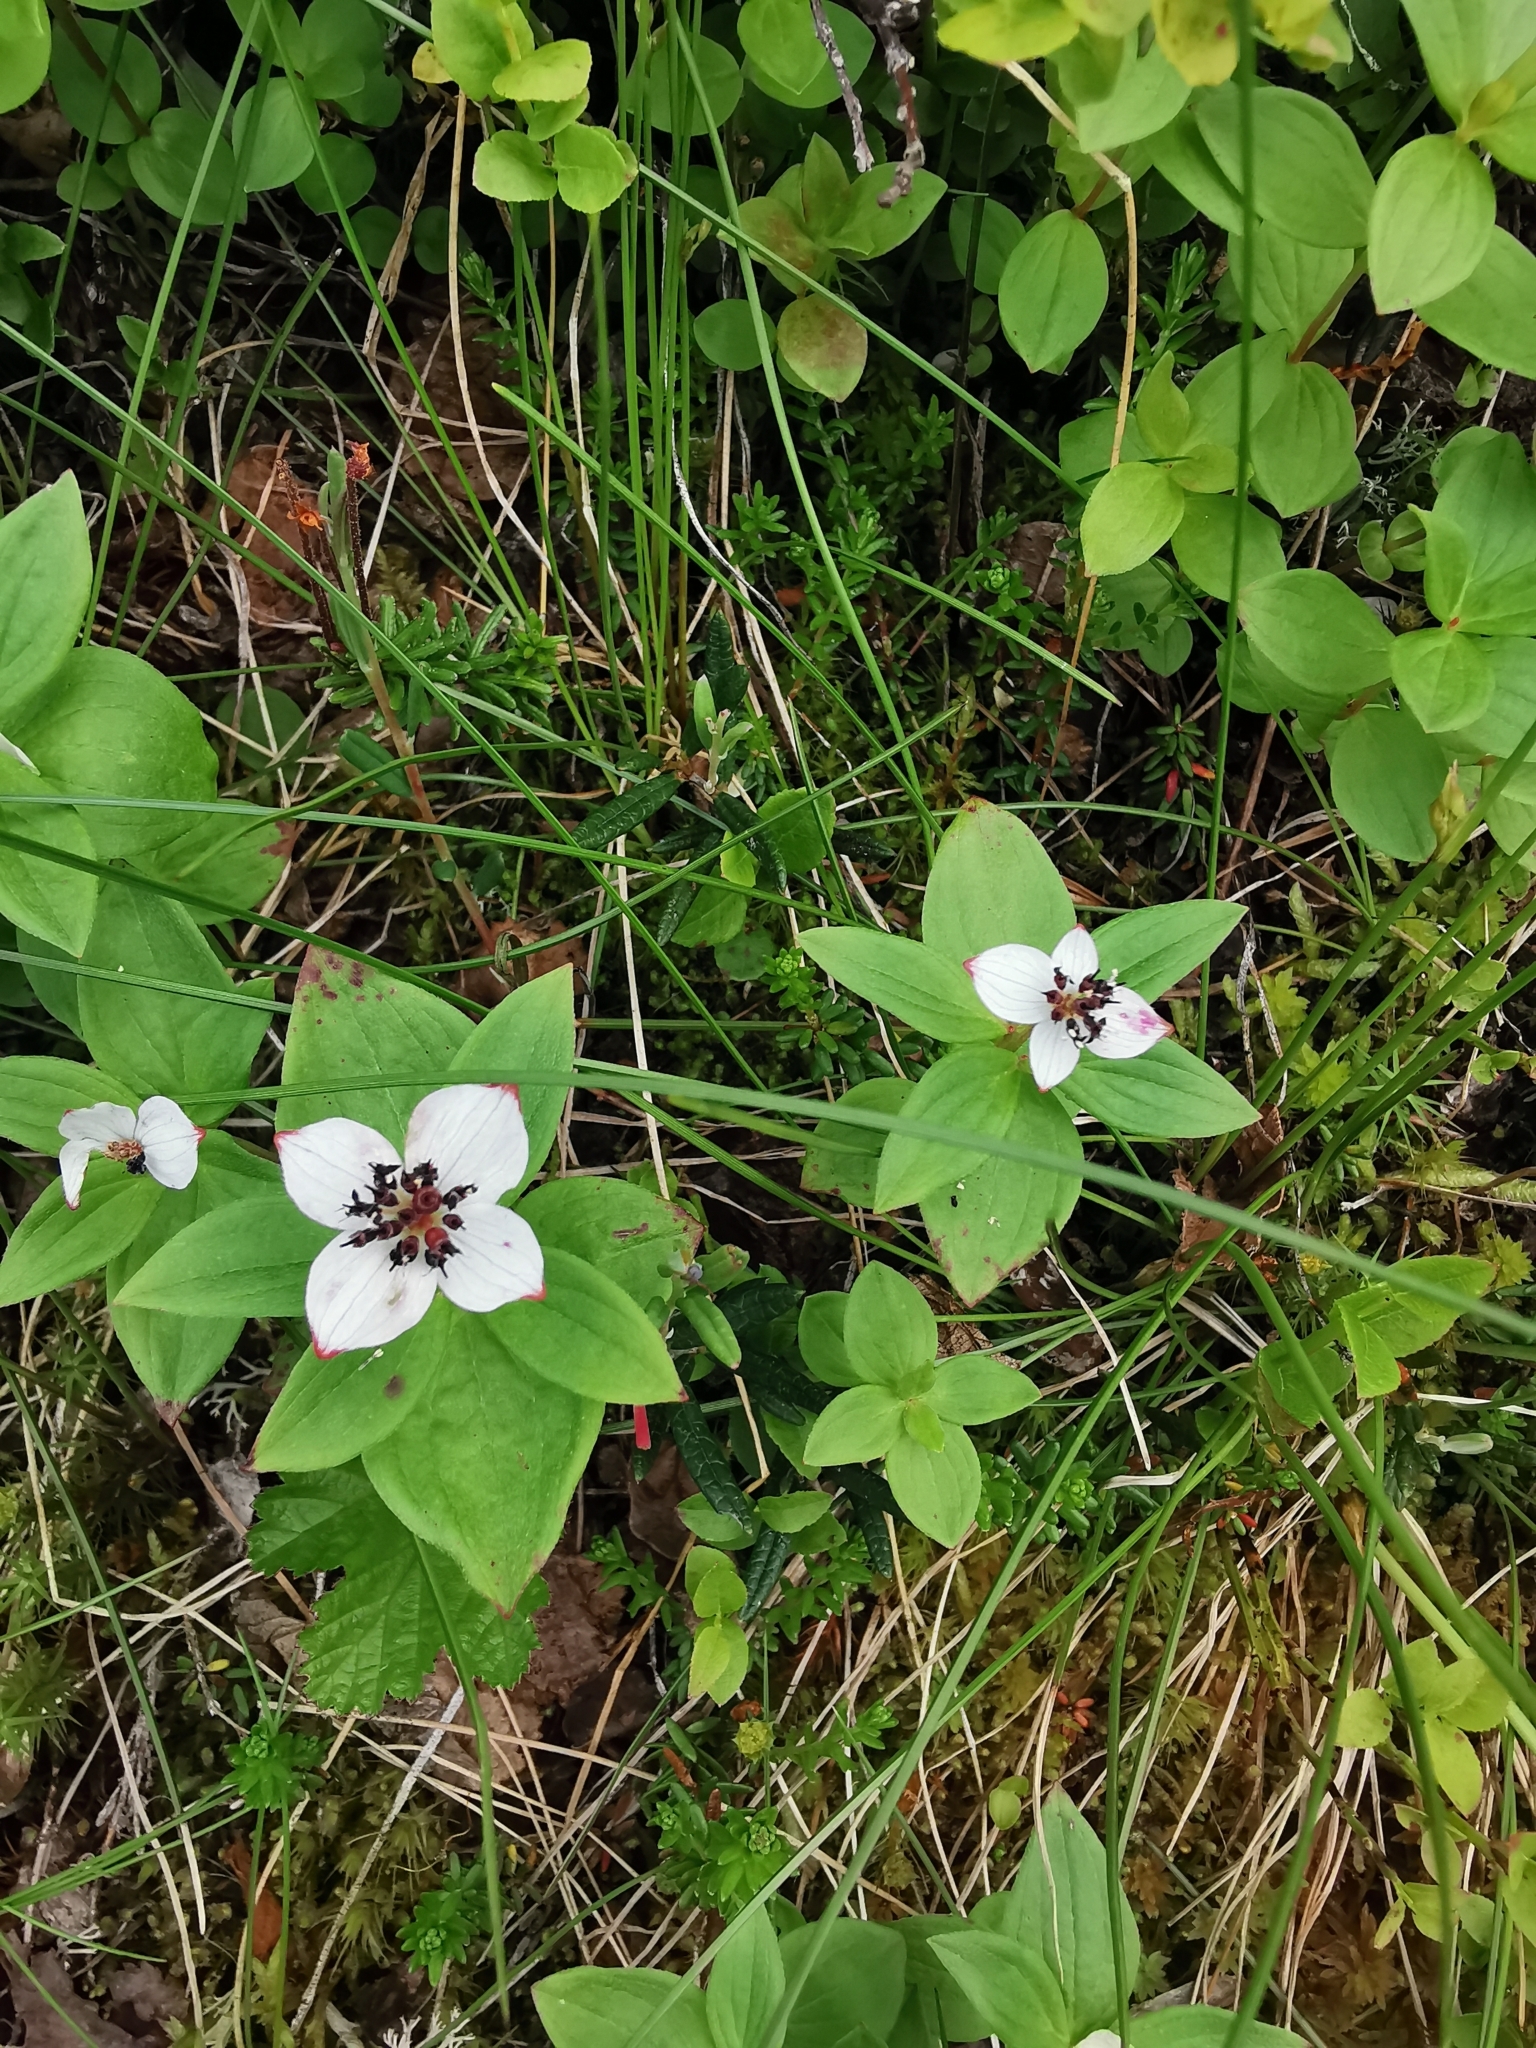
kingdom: Plantae
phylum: Tracheophyta
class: Magnoliopsida
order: Cornales
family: Cornaceae
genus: Cornus
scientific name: Cornus suecica
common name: Dwarf cornel
